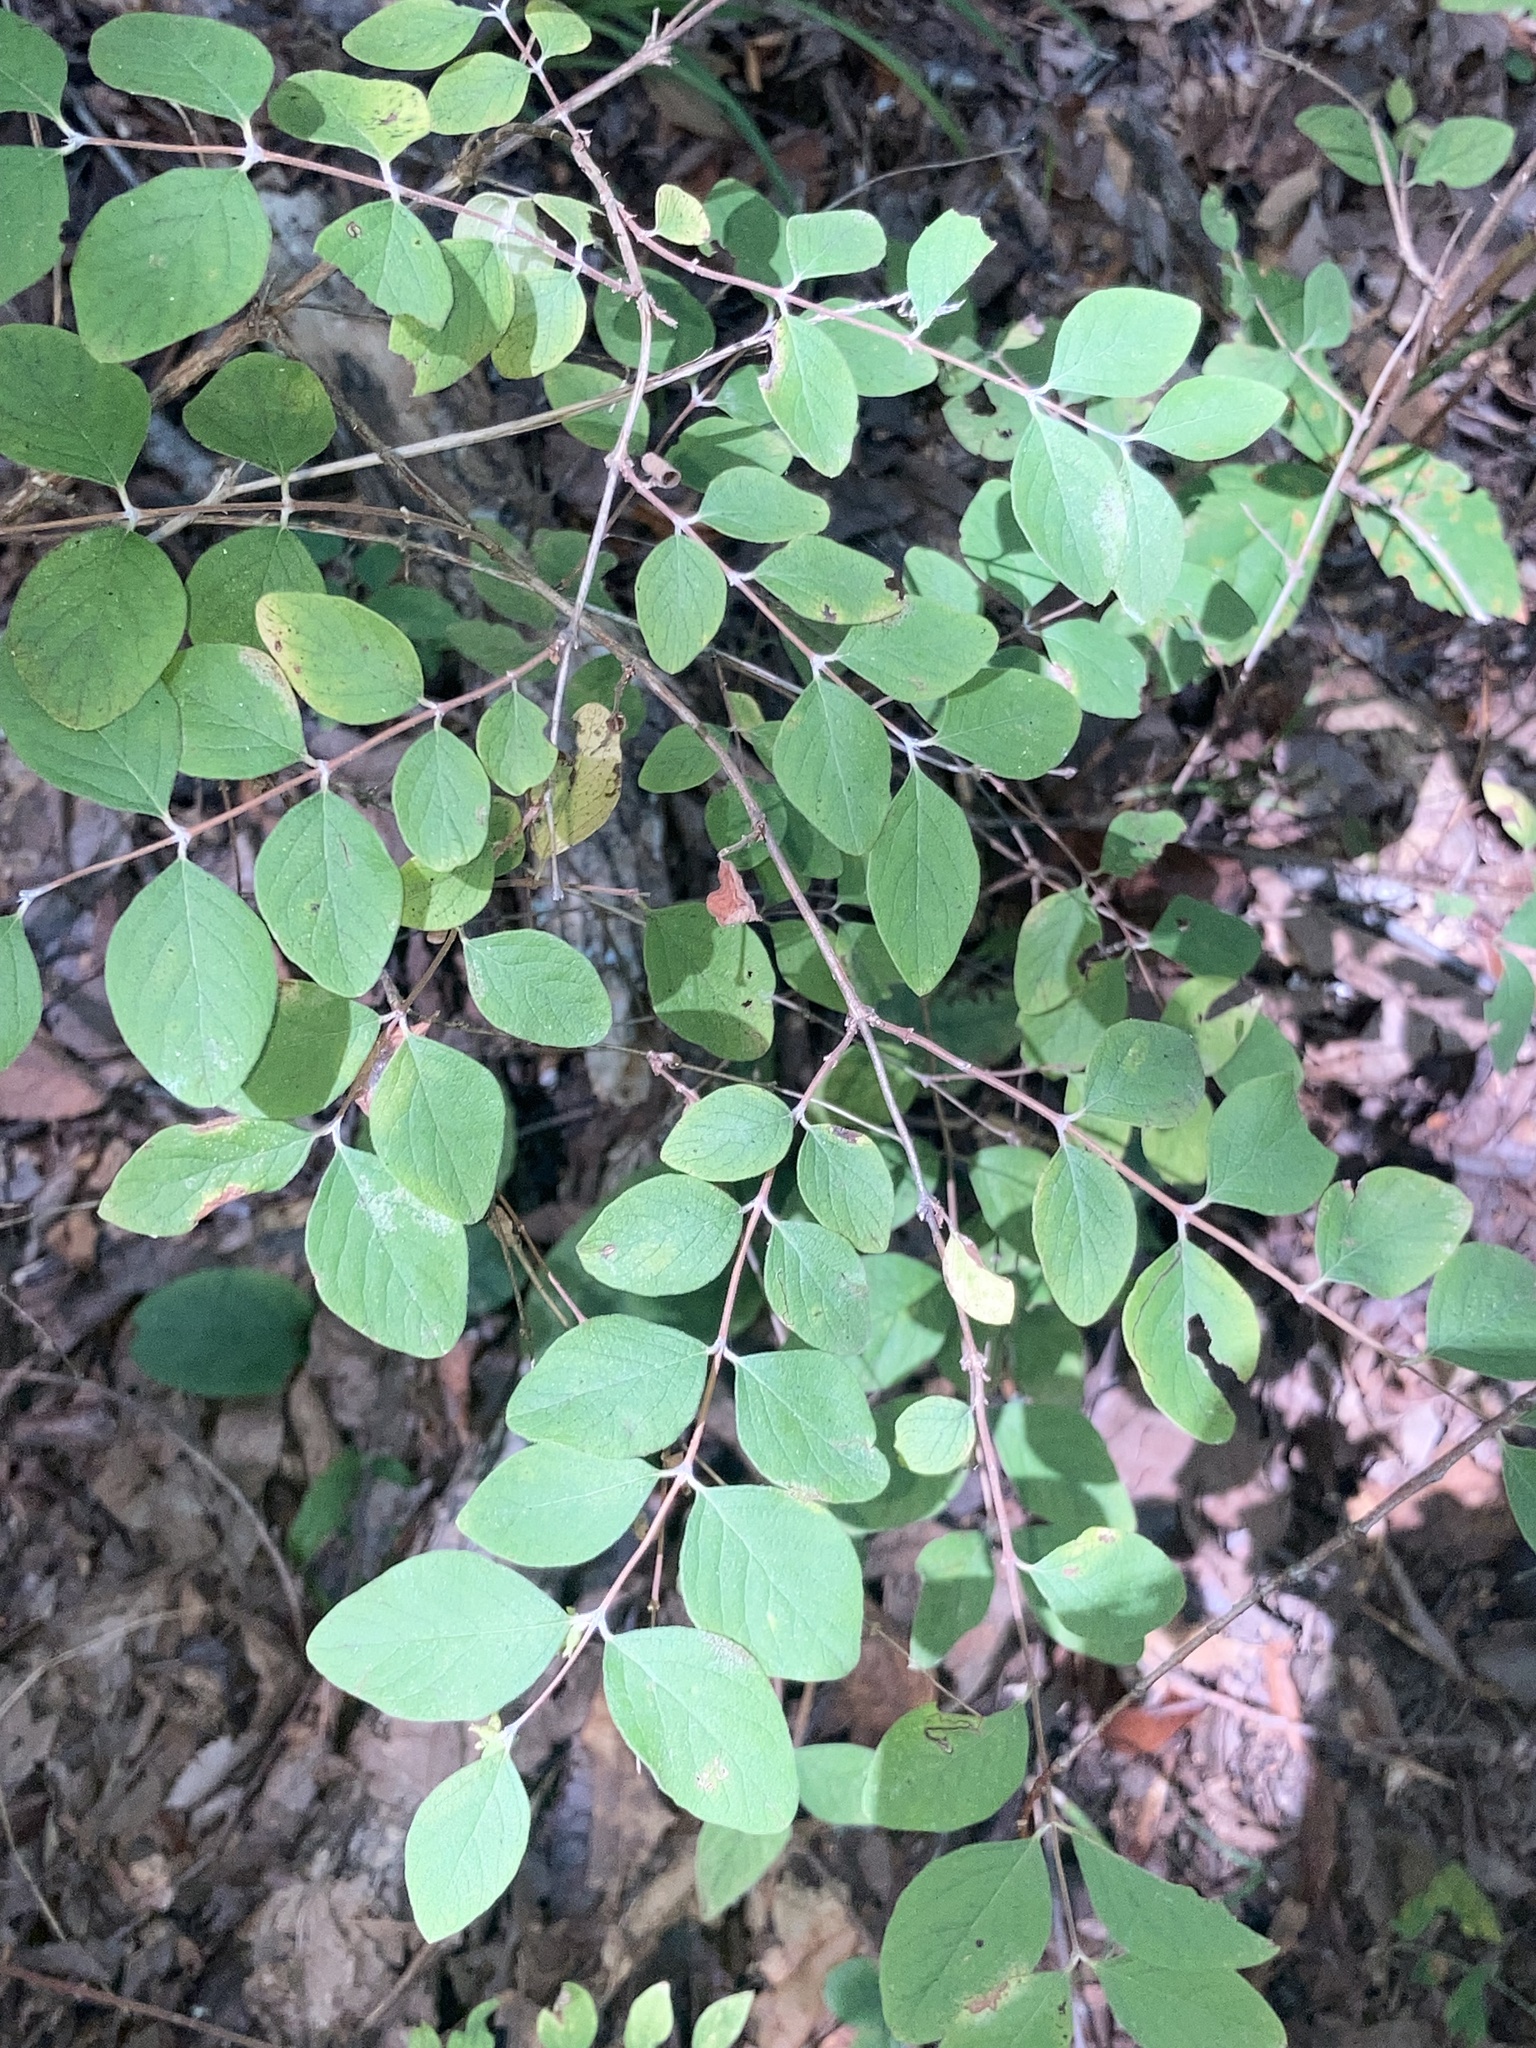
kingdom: Plantae
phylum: Tracheophyta
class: Magnoliopsida
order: Dipsacales
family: Caprifoliaceae
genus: Symphoricarpos
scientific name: Symphoricarpos orbiculatus
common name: Coralberry
